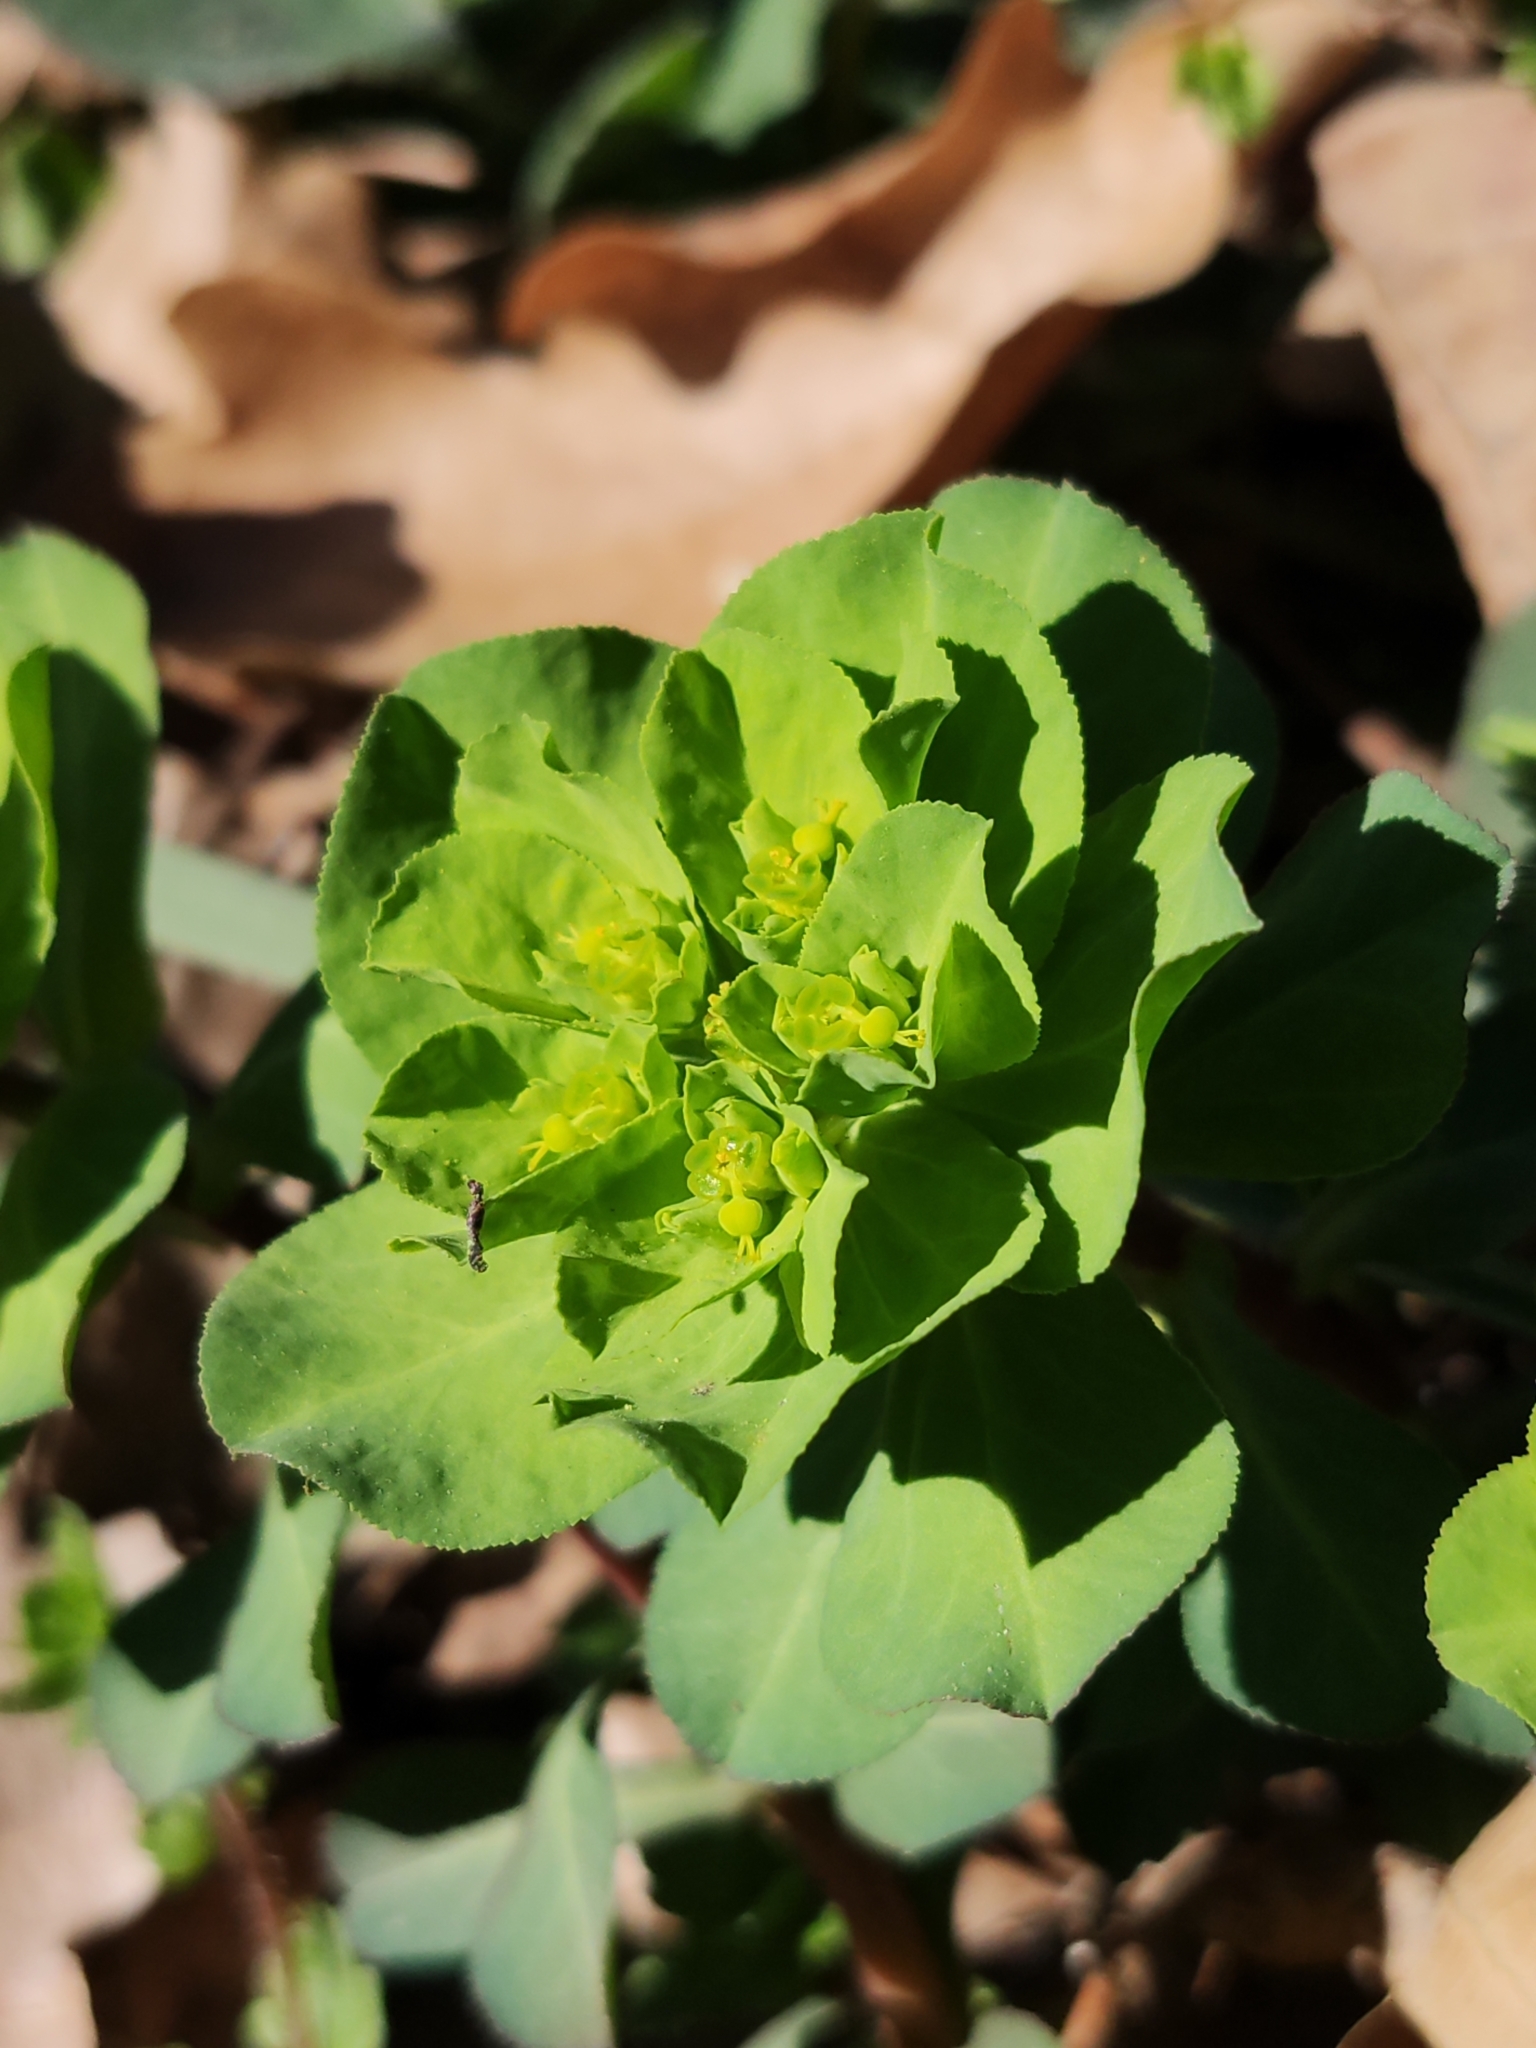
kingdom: Plantae
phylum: Tracheophyta
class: Magnoliopsida
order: Malpighiales
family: Euphorbiaceae
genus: Euphorbia
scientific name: Euphorbia helioscopia
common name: Sun spurge
